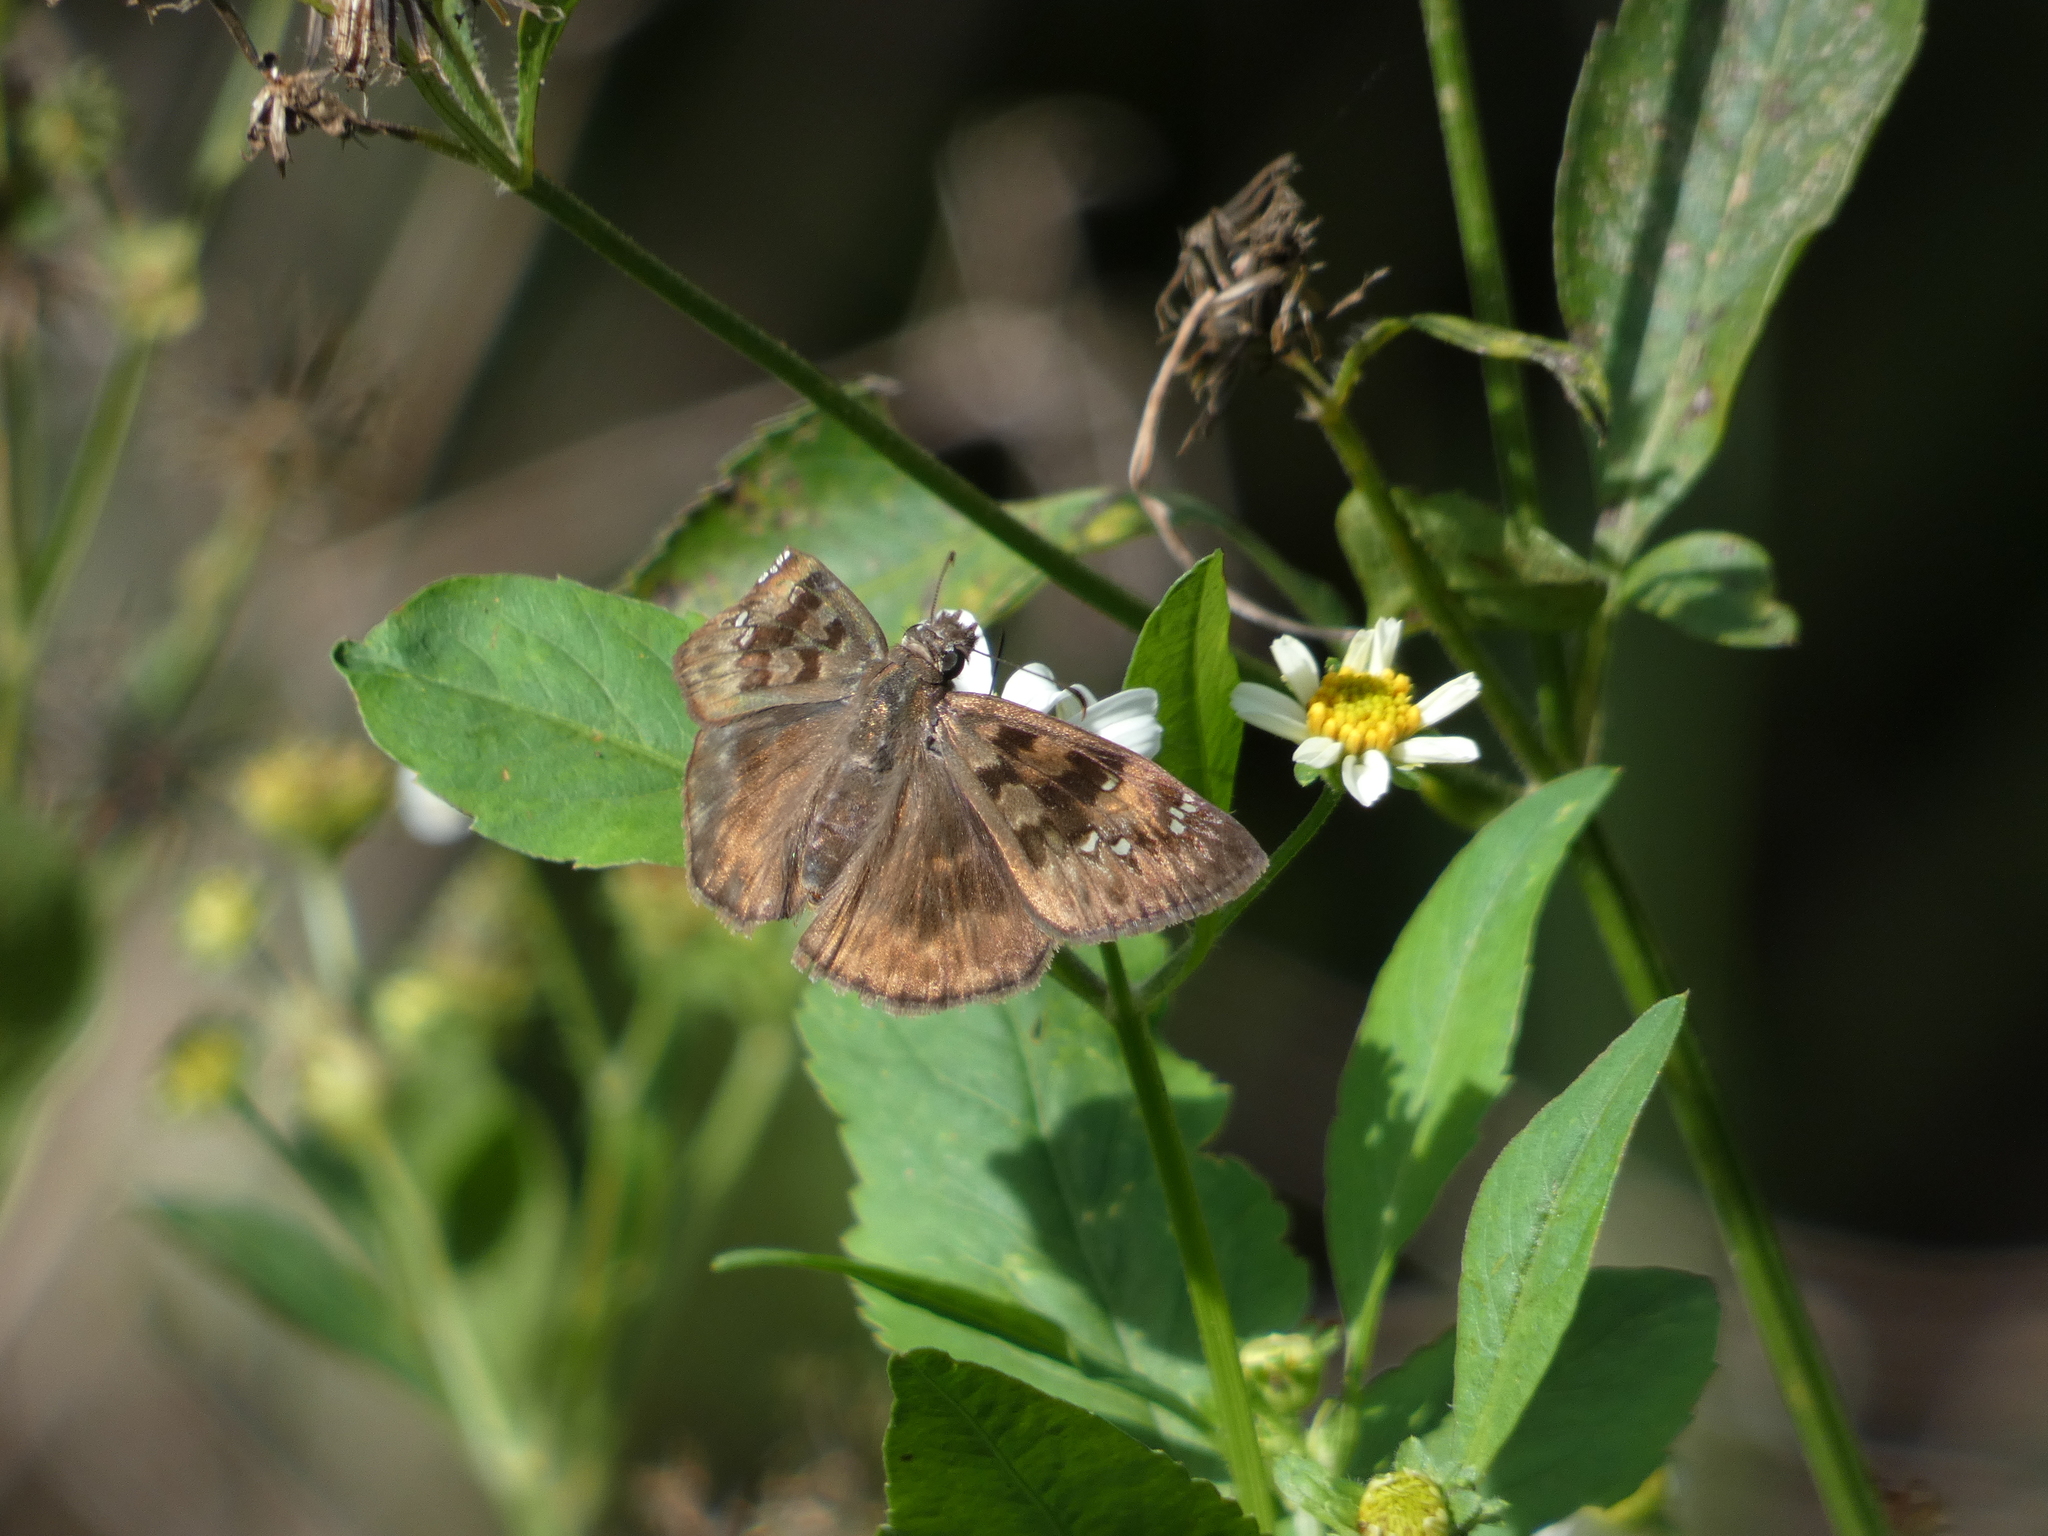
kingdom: Animalia
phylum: Arthropoda
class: Insecta
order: Lepidoptera
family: Hesperiidae
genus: Erynnis
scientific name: Erynnis horatius
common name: Horace's duskywing
